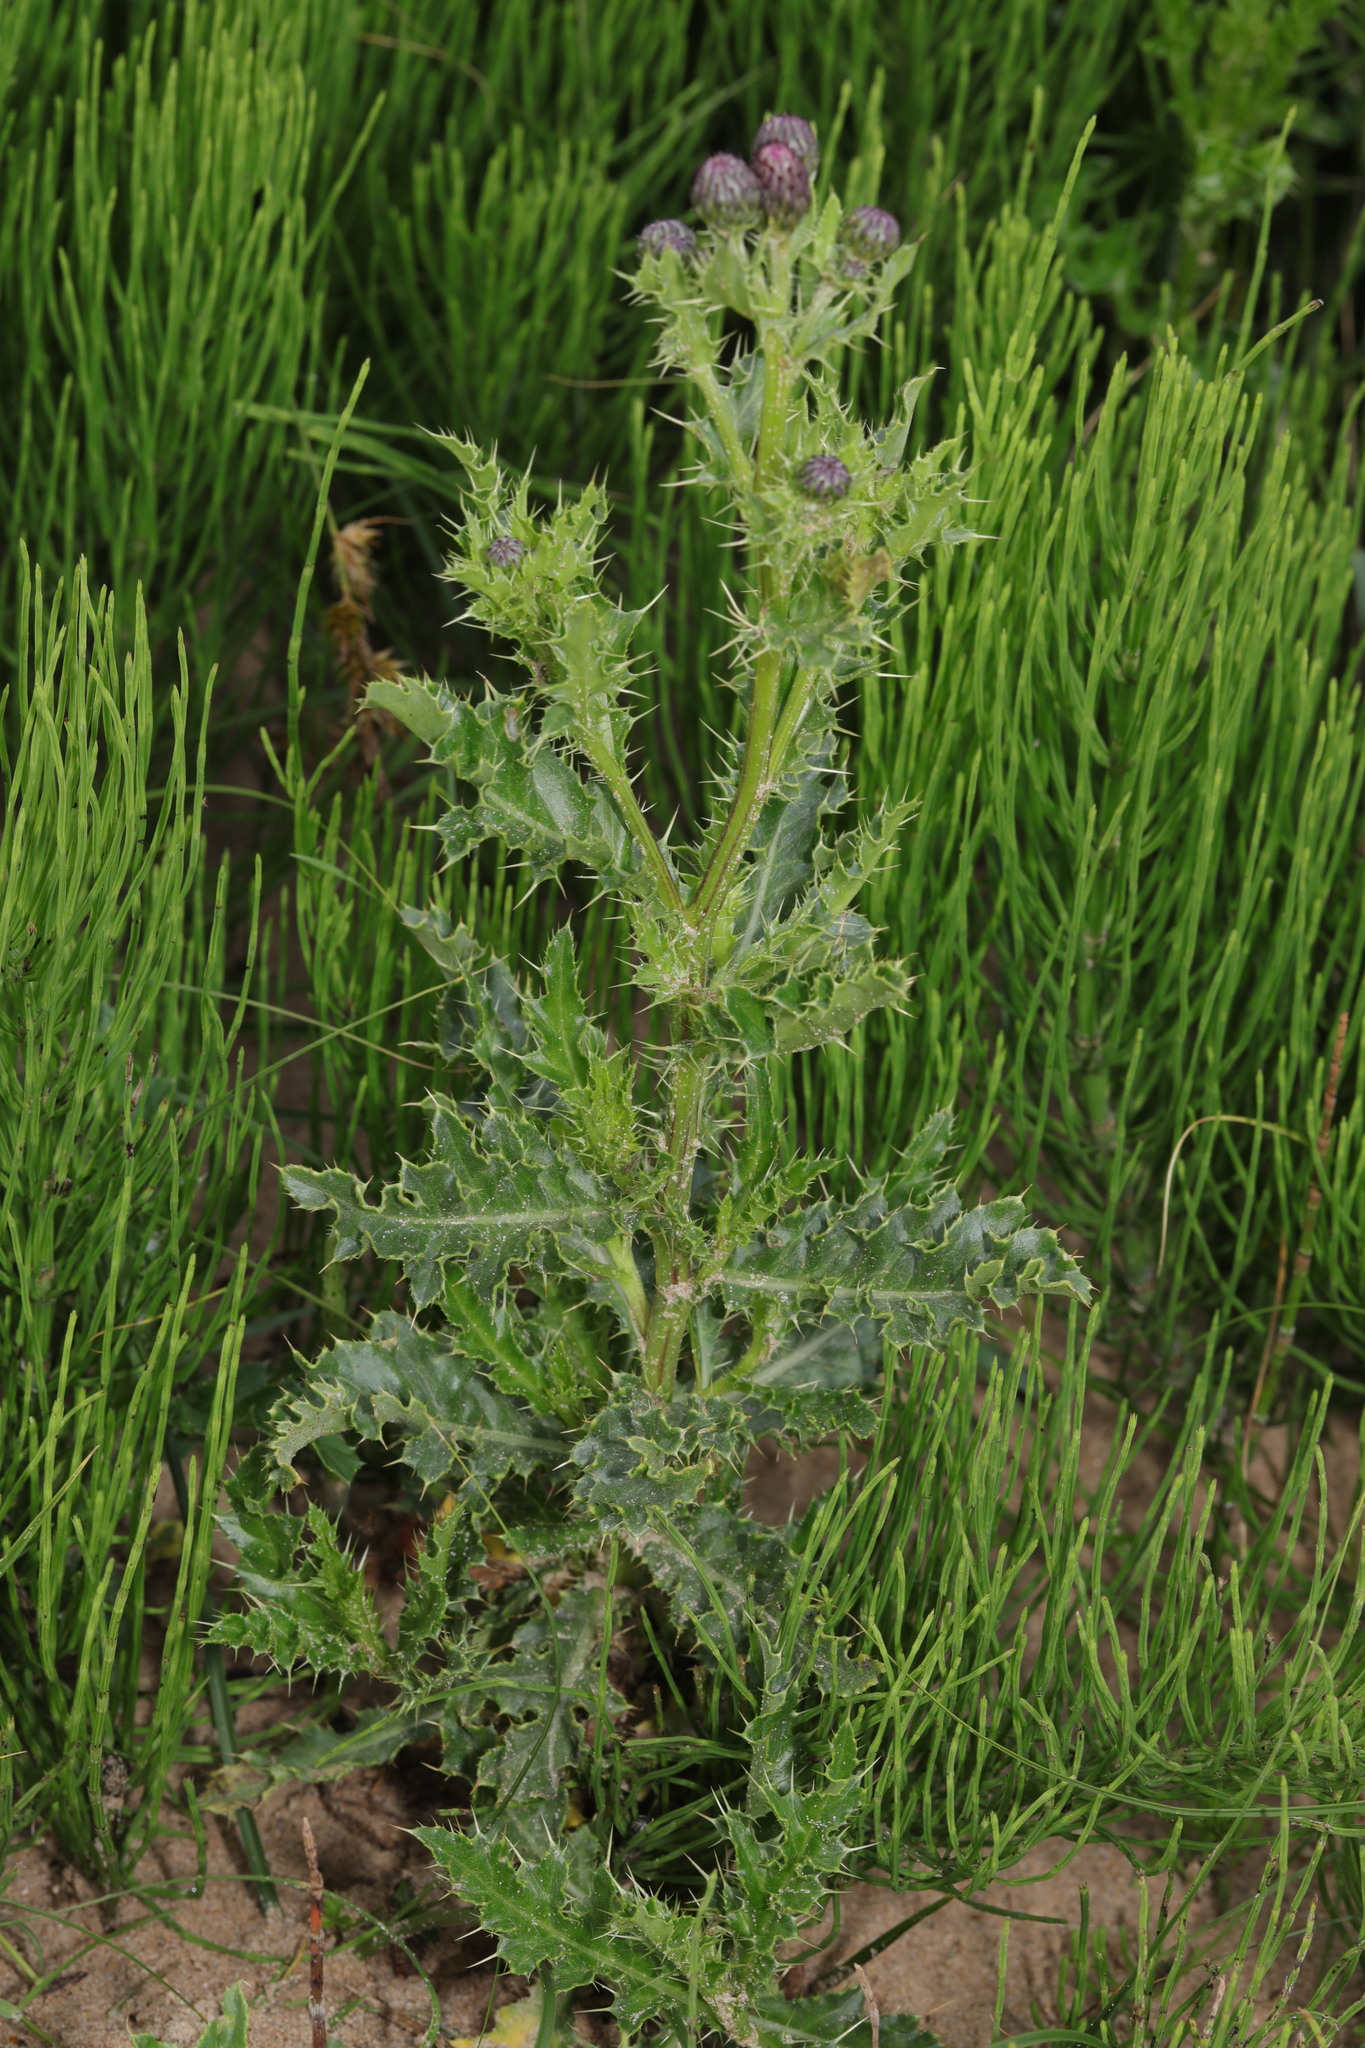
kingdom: Plantae
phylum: Tracheophyta
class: Magnoliopsida
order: Asterales
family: Asteraceae
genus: Cirsium
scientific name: Cirsium arvense
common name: Creeping thistle
